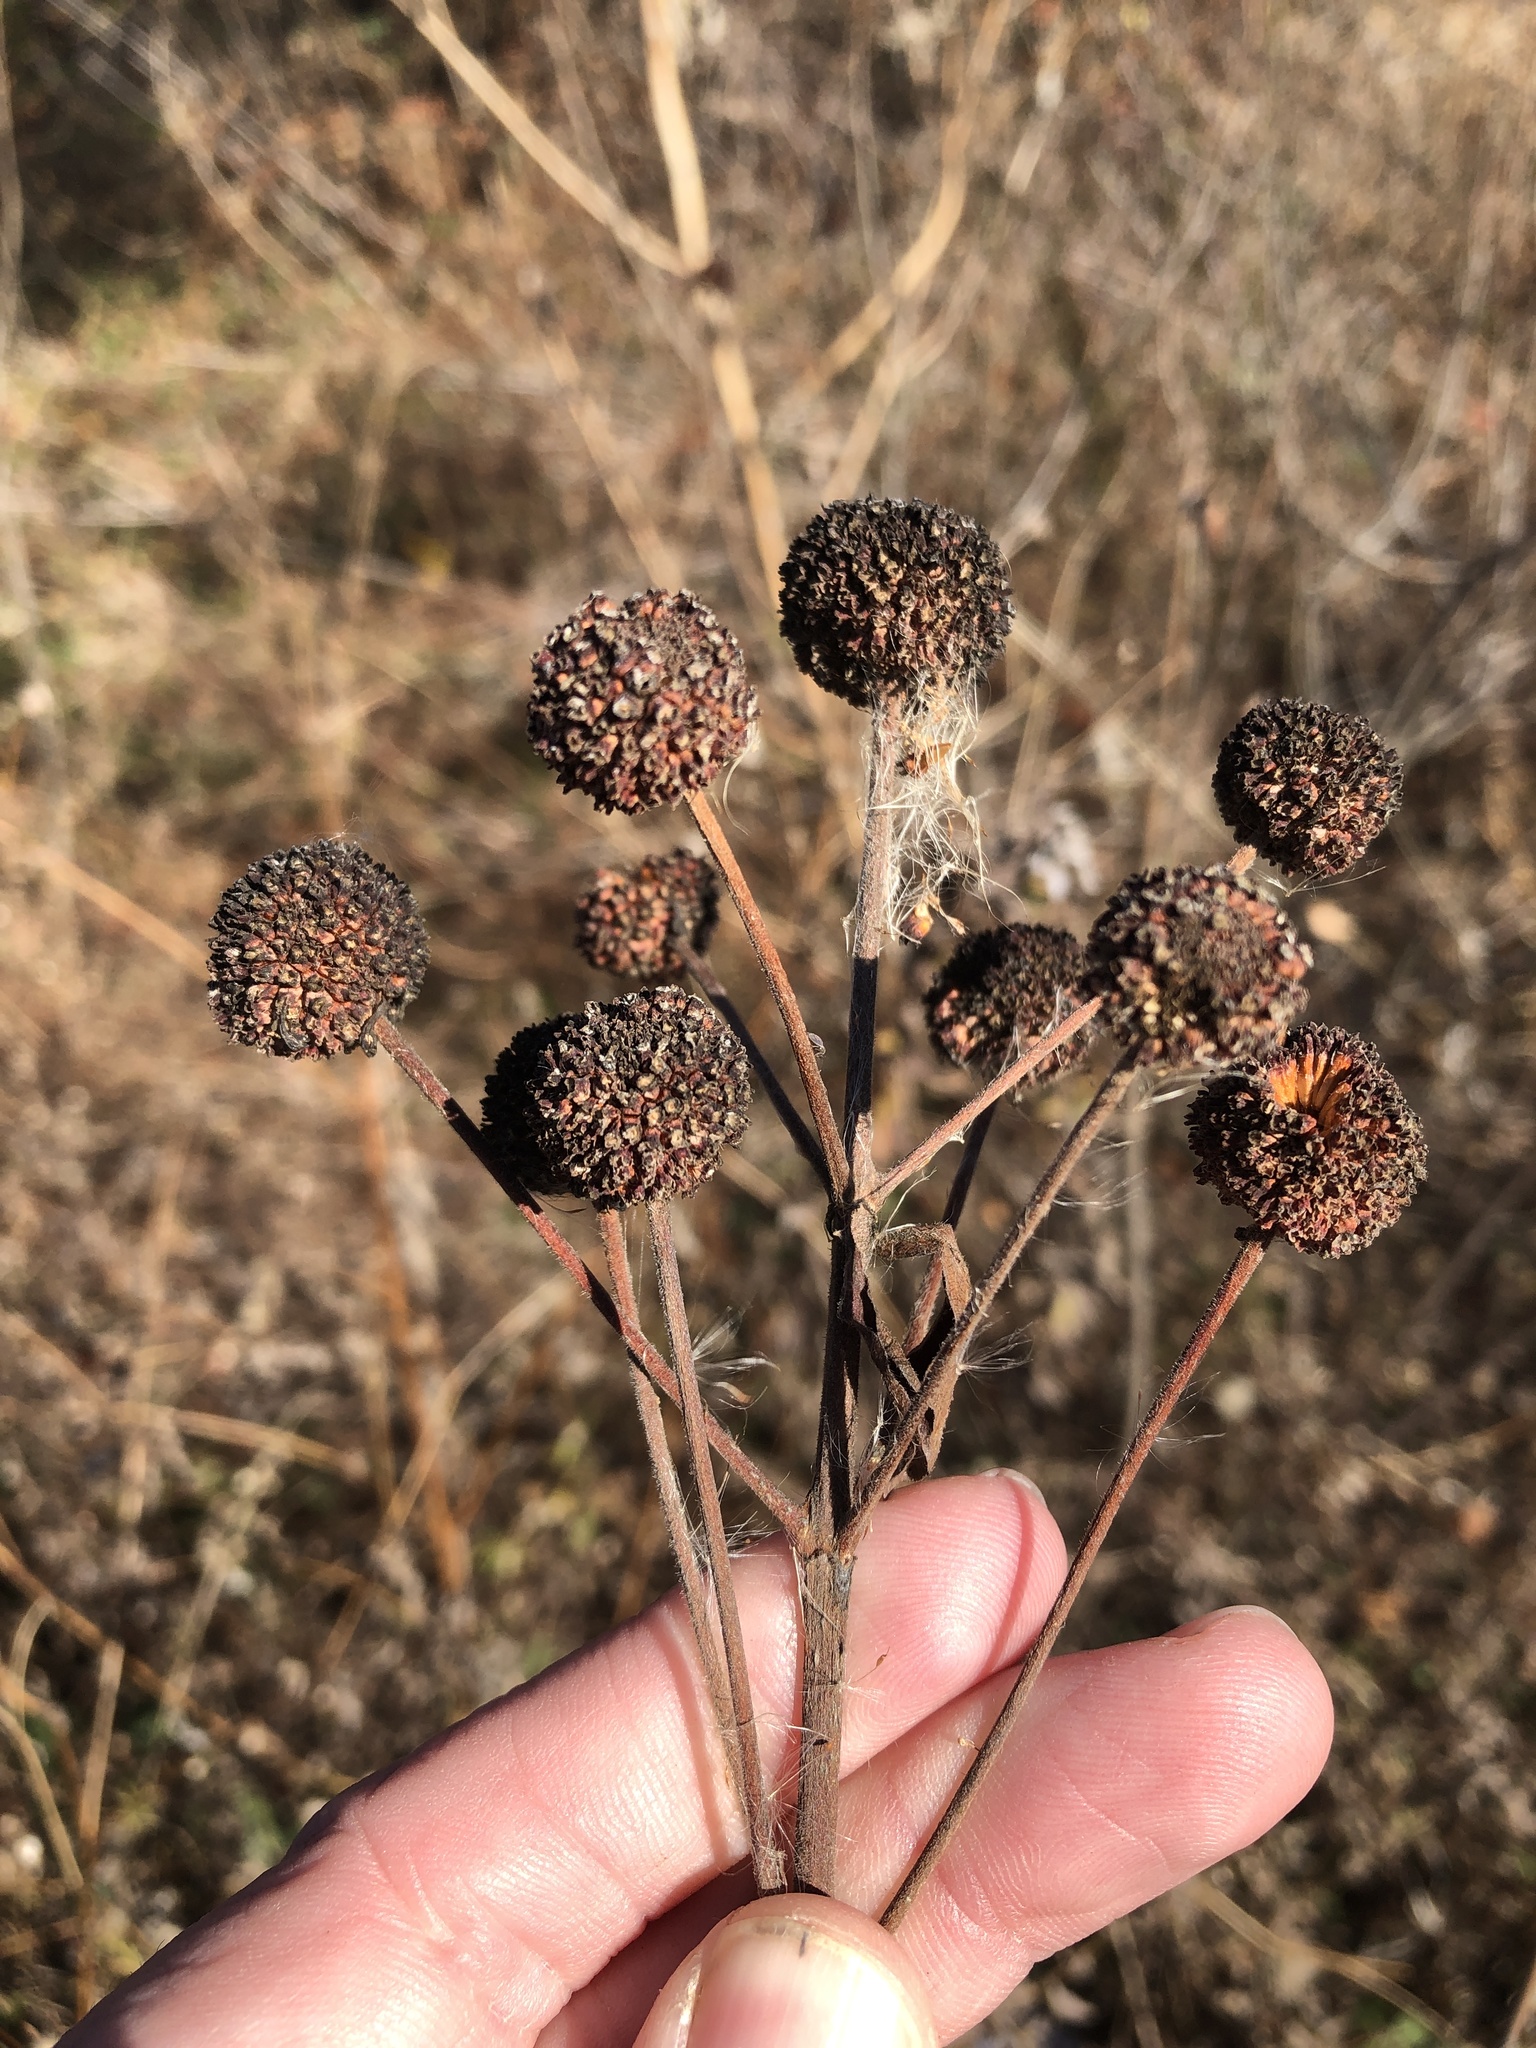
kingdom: Plantae
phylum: Tracheophyta
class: Magnoliopsida
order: Gentianales
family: Rubiaceae
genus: Cephalanthus
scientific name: Cephalanthus occidentalis
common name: Button-willow
